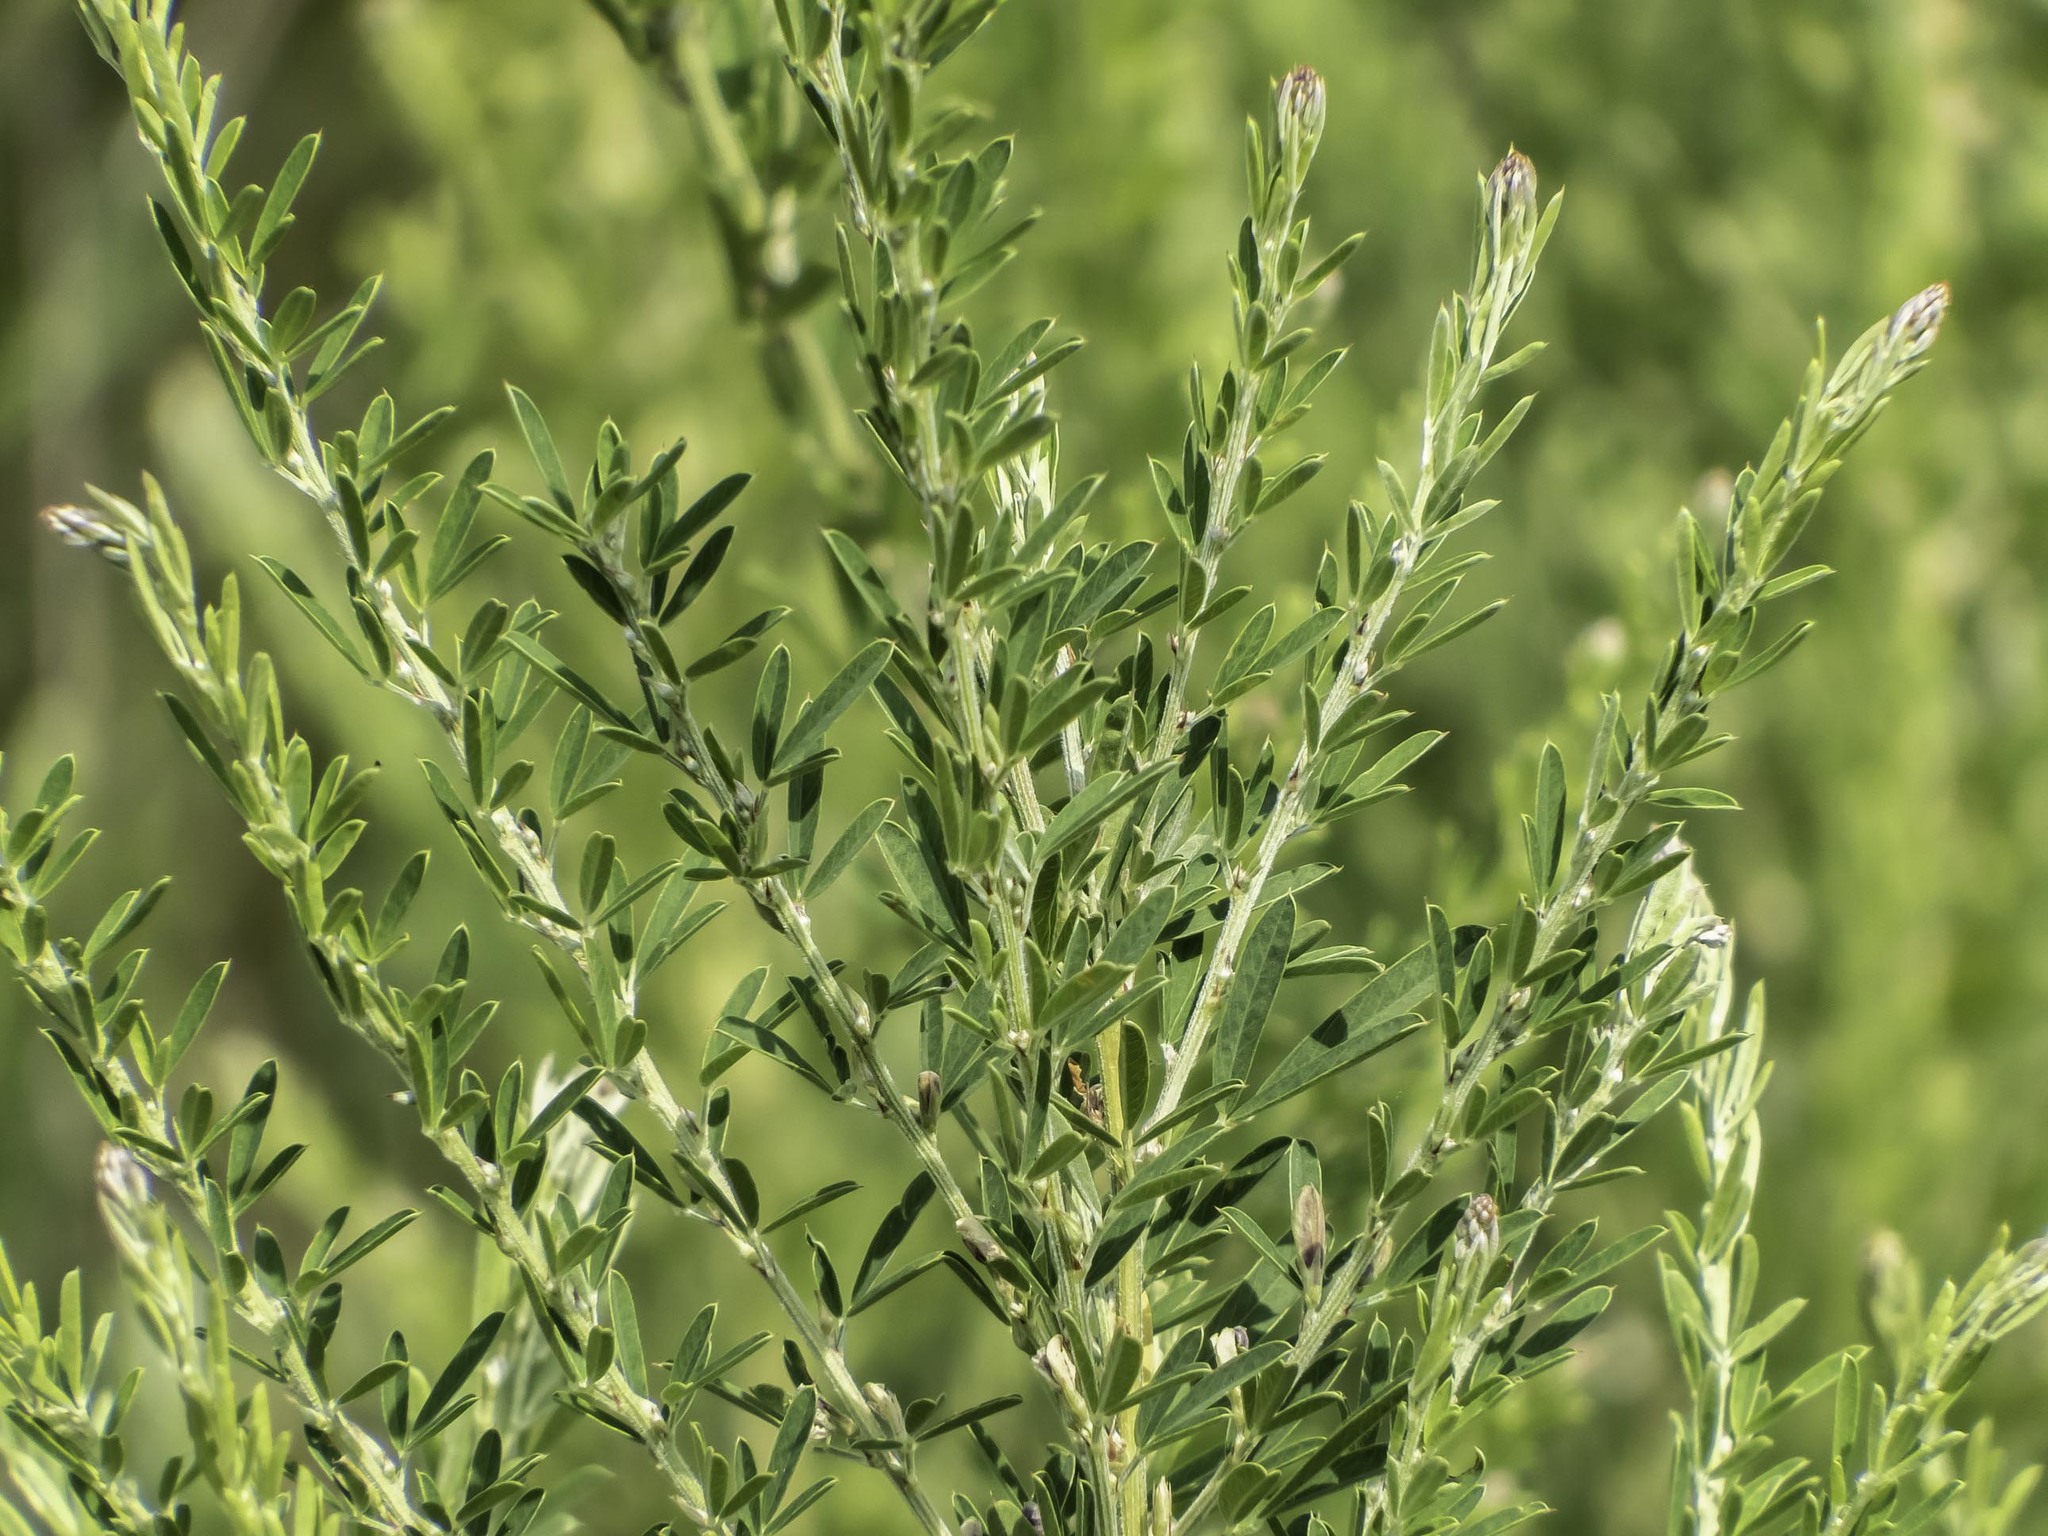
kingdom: Plantae
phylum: Tracheophyta
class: Magnoliopsida
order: Fabales
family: Fabaceae
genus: Lespedeza
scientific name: Lespedeza cuneata
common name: Chinese bush-clover
